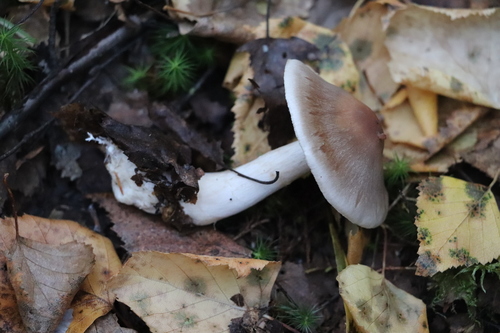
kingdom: Fungi
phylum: Basidiomycota
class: Agaricomycetes
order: Agaricales
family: Cortinariaceae
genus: Cortinarius
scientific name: Cortinarius
